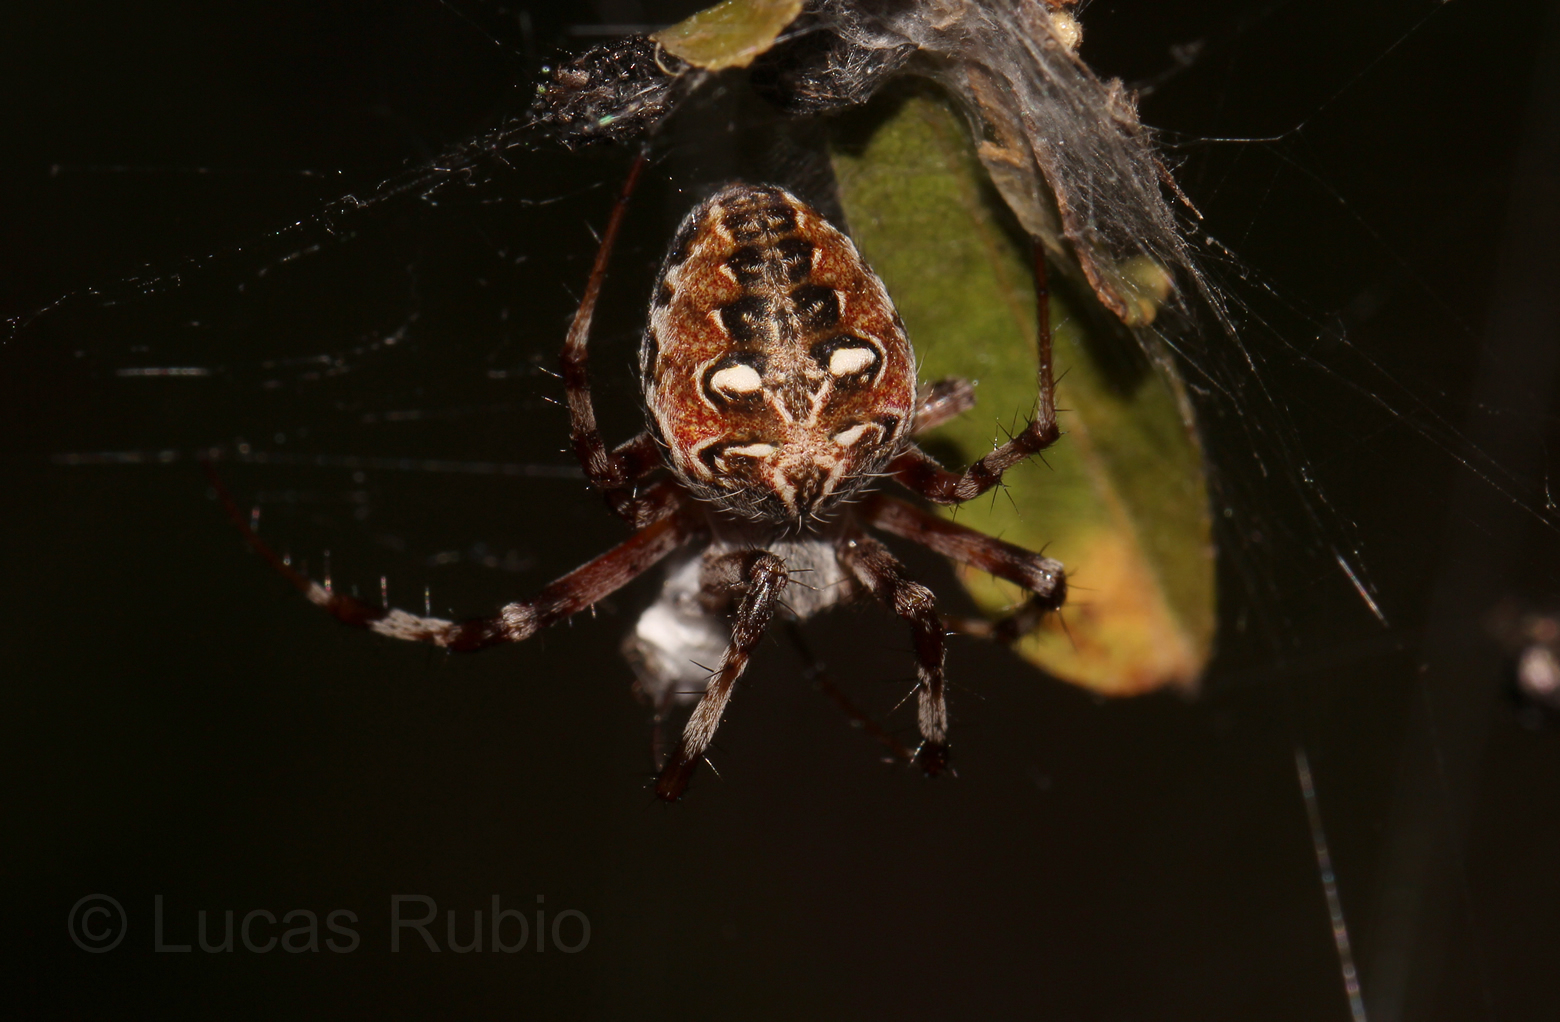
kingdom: Animalia
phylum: Arthropoda
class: Arachnida
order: Araneae
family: Araneidae
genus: Metepeira
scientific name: Metepeira
